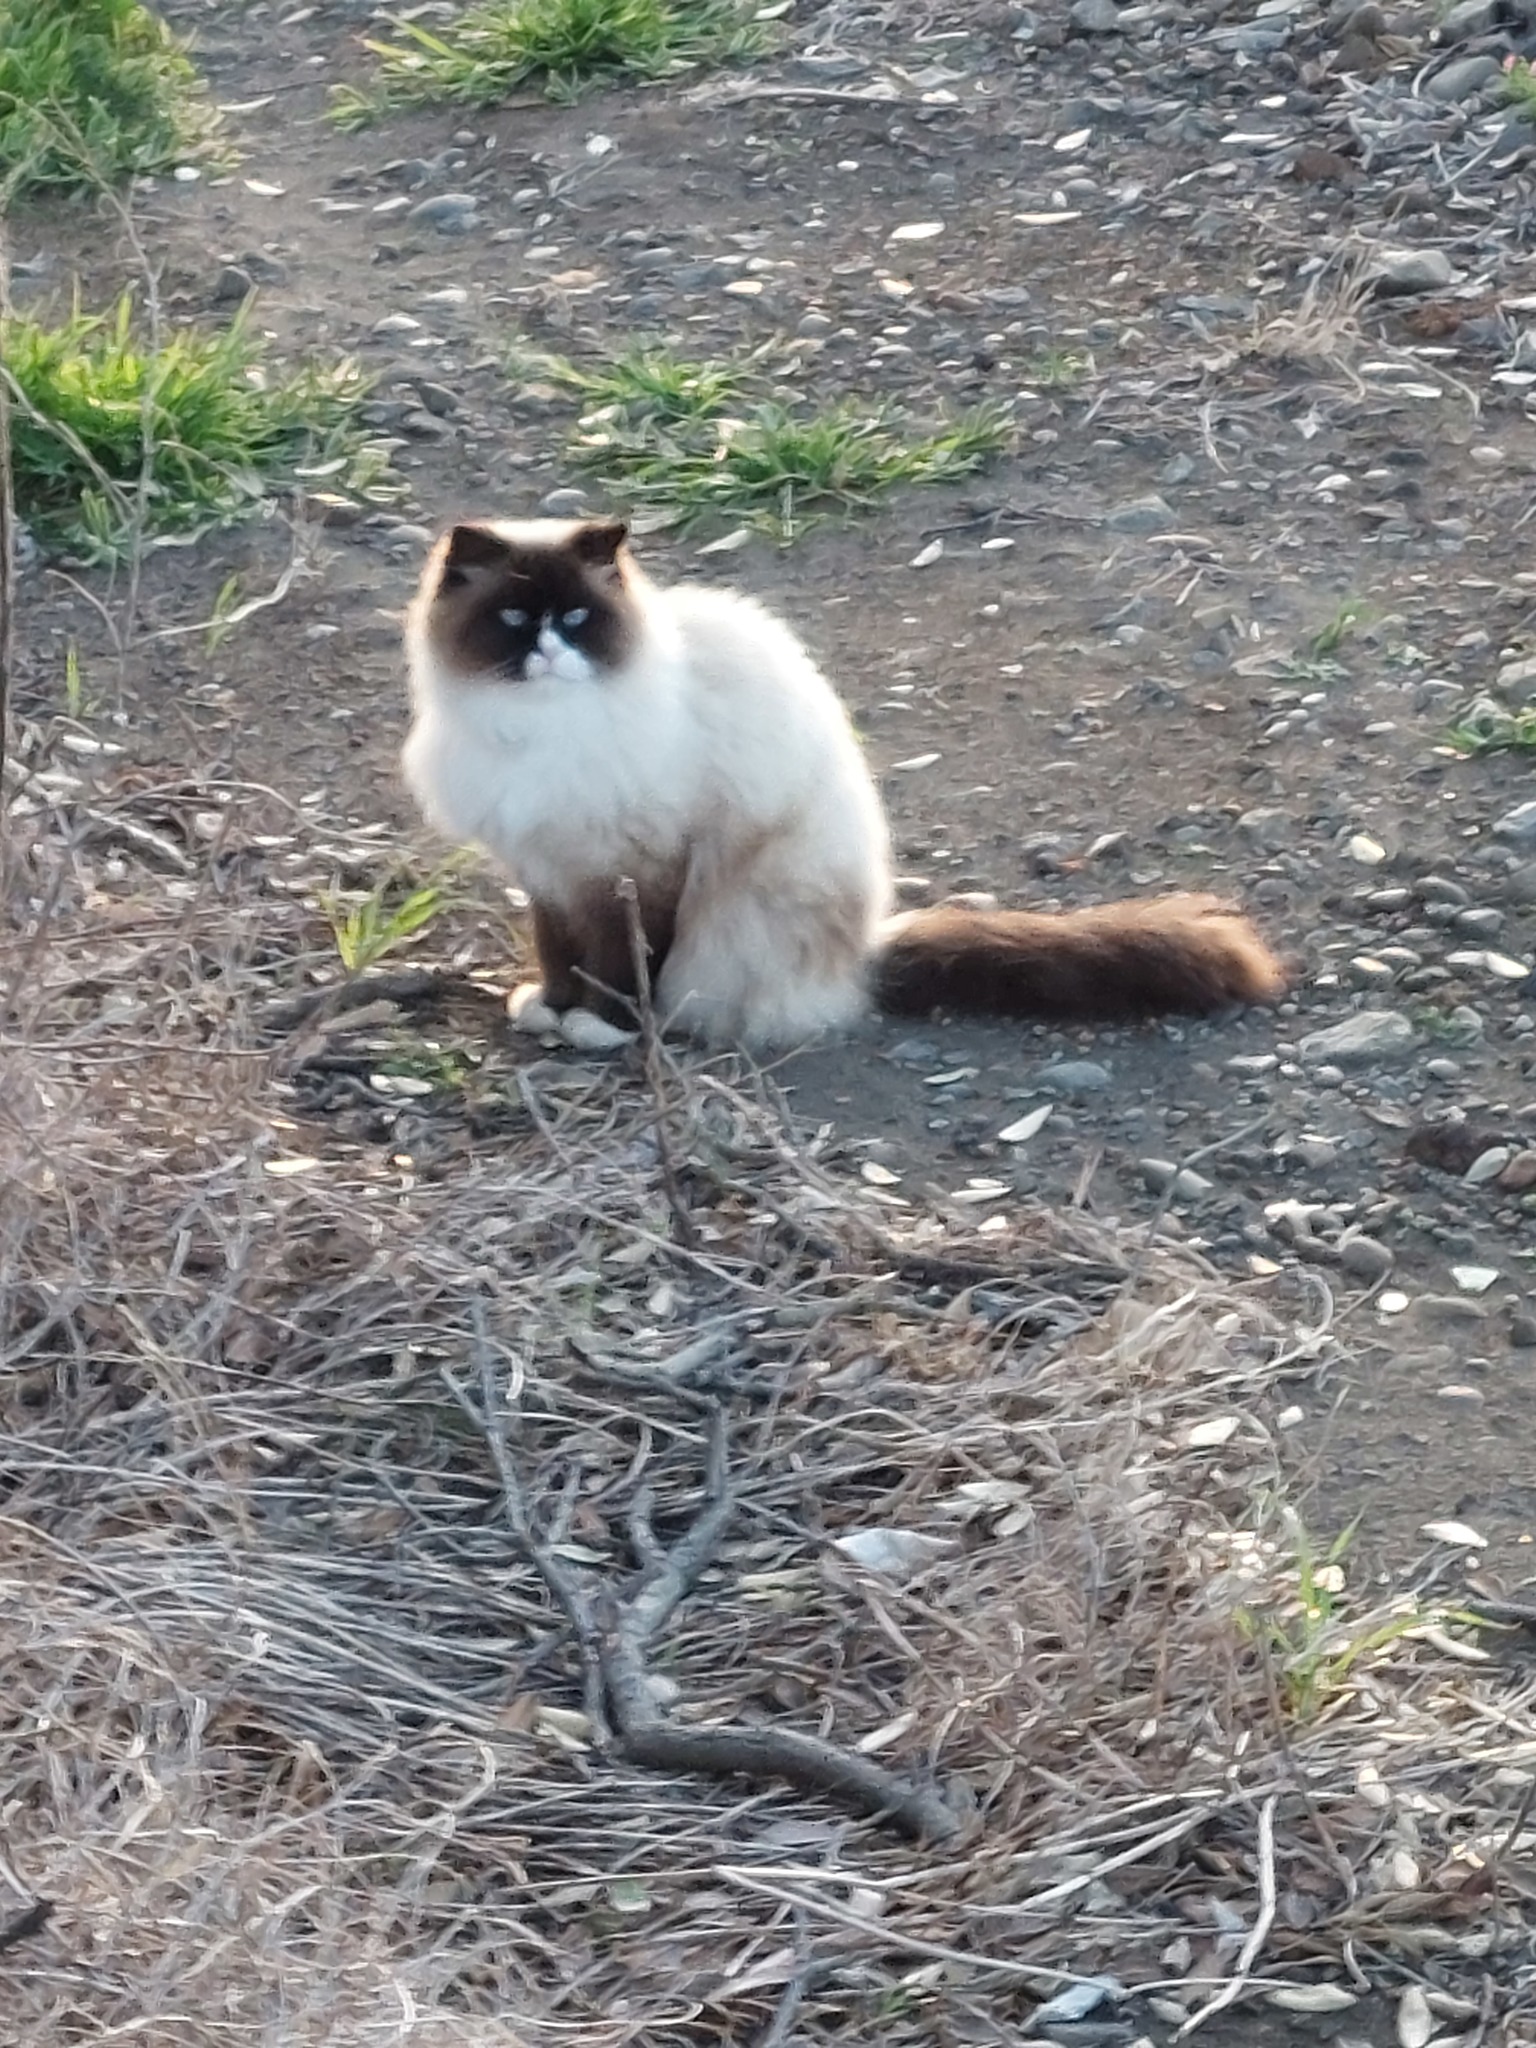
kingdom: Animalia
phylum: Chordata
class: Mammalia
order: Carnivora
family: Felidae
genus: Felis
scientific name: Felis catus
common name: Domestic cat
